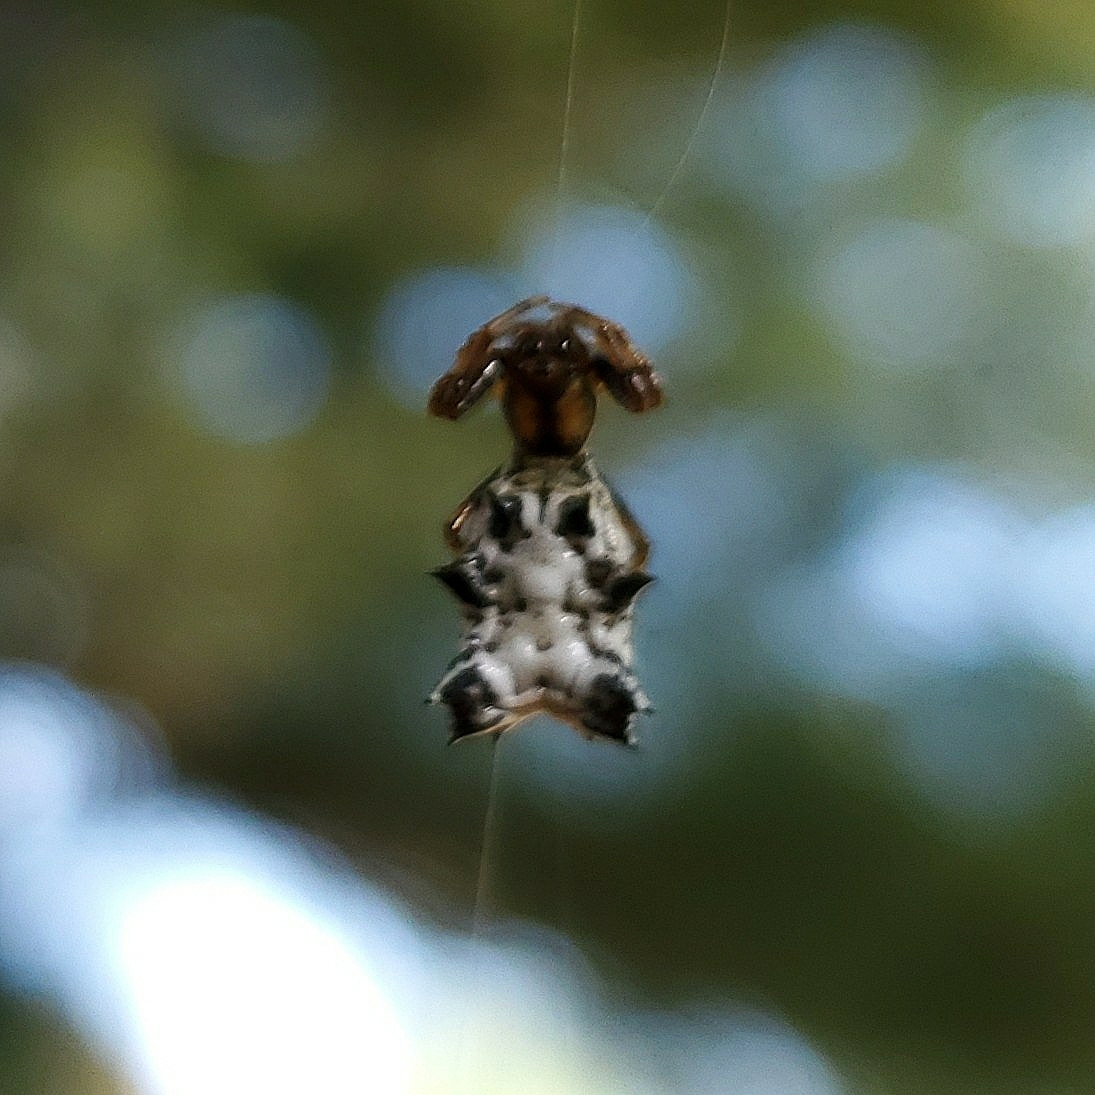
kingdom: Animalia
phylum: Arthropoda
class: Arachnida
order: Araneae
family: Araneidae
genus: Micrathena
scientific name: Micrathena gracilis
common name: Orb weavers
